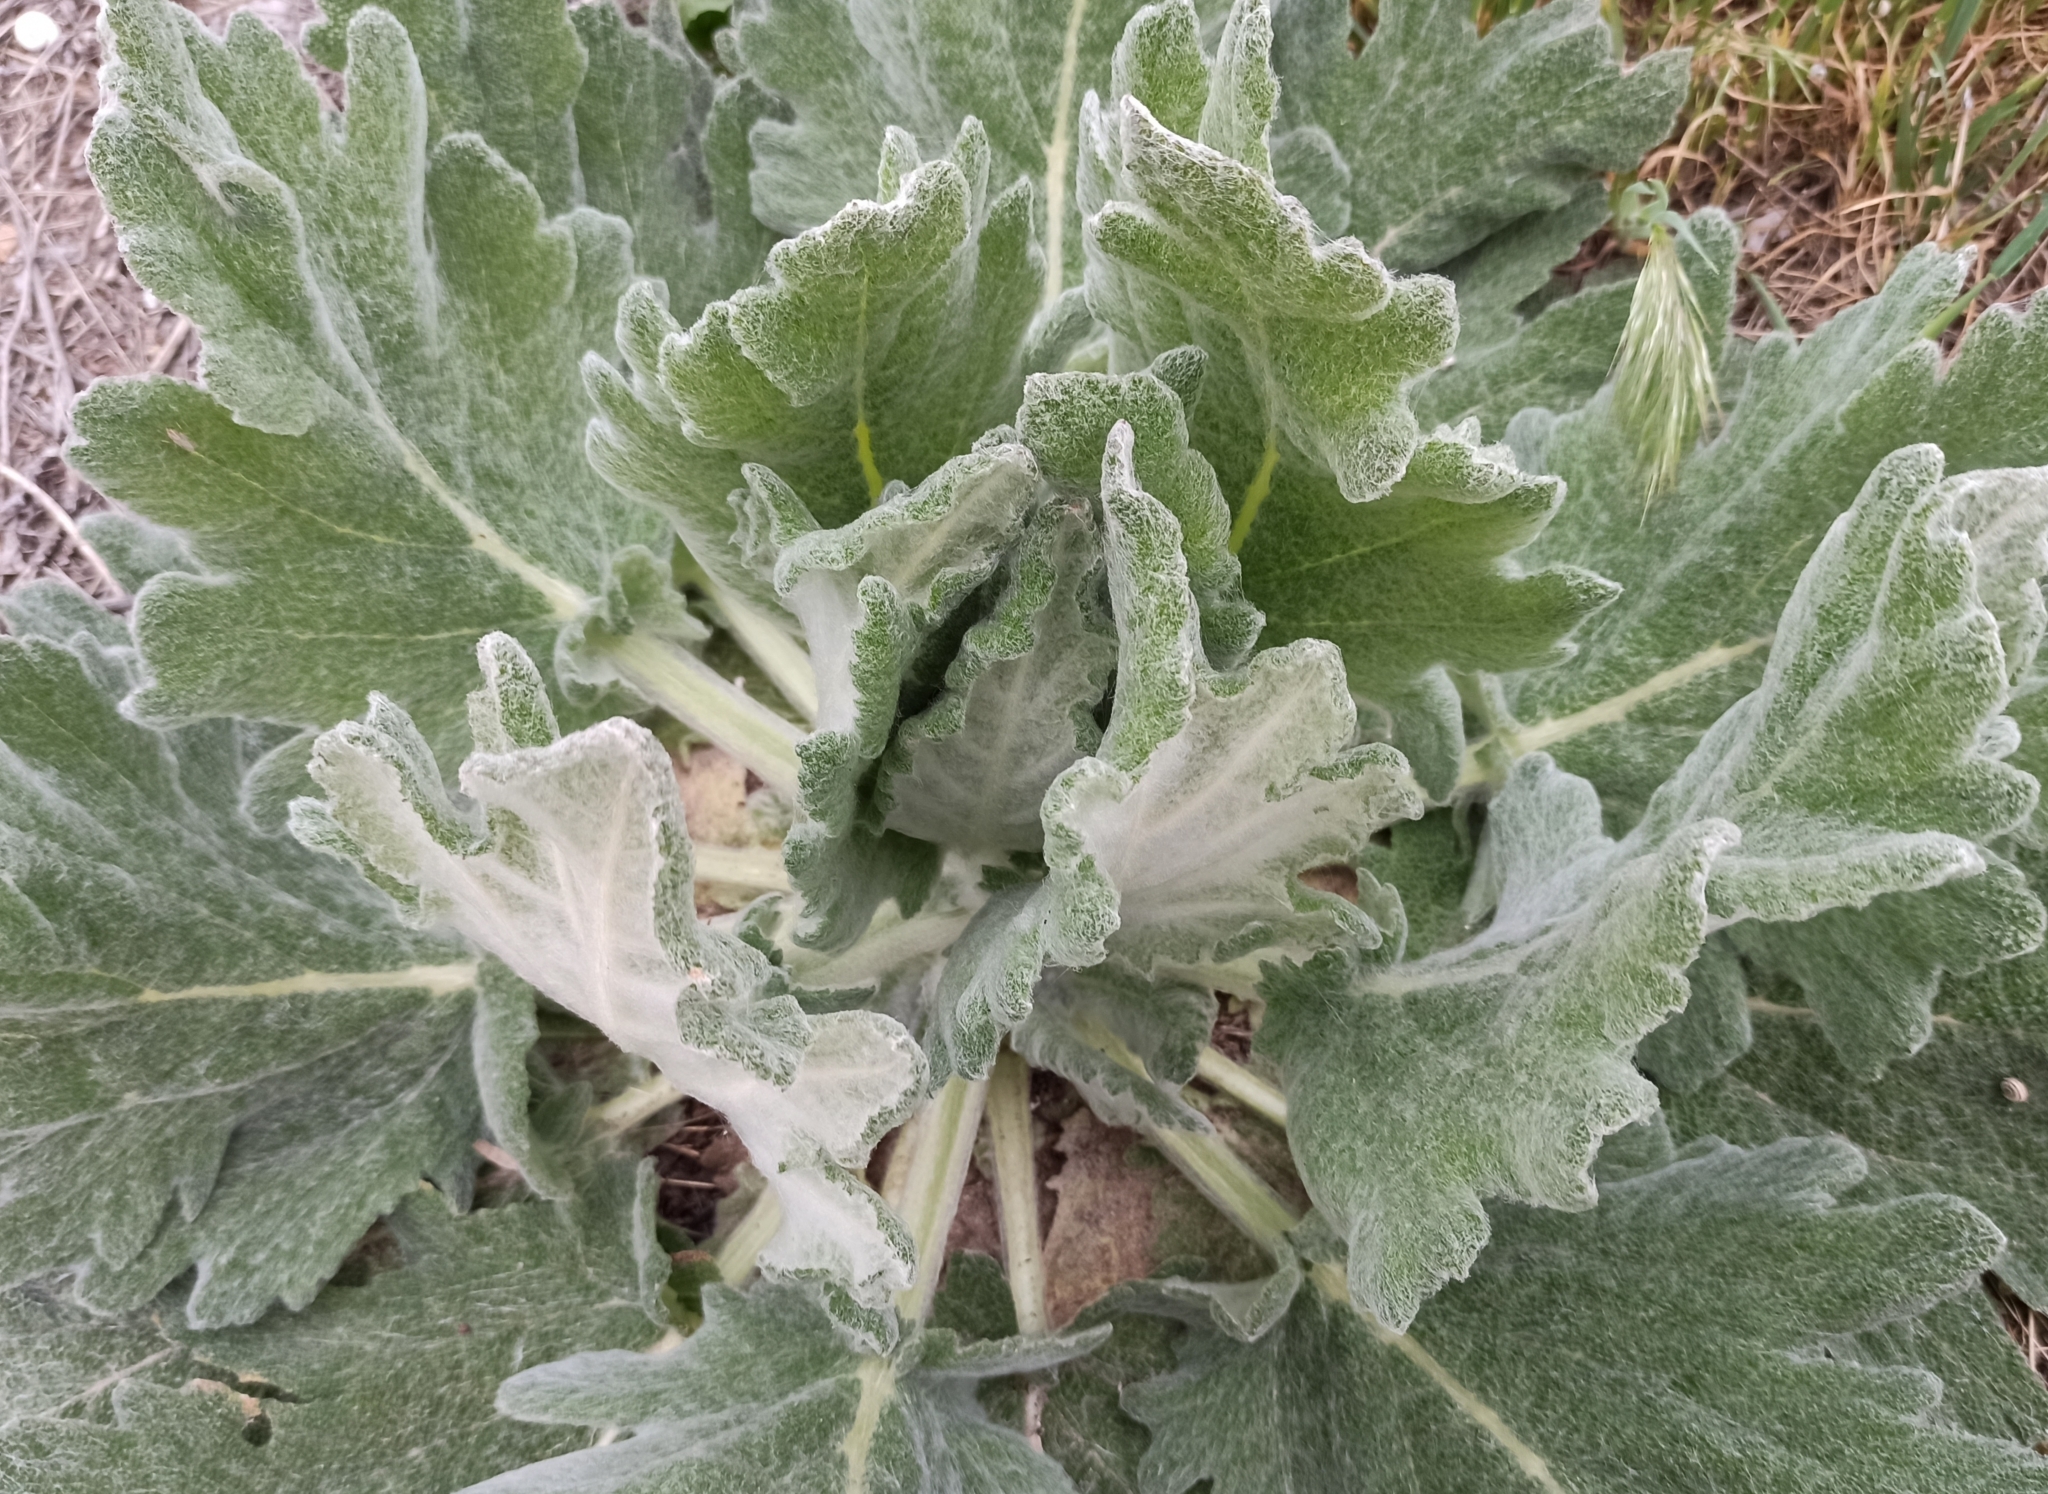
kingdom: Plantae
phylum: Tracheophyta
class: Magnoliopsida
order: Lamiales
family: Lamiaceae
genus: Salvia
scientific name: Salvia aethiopis
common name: Mediterranean sage
